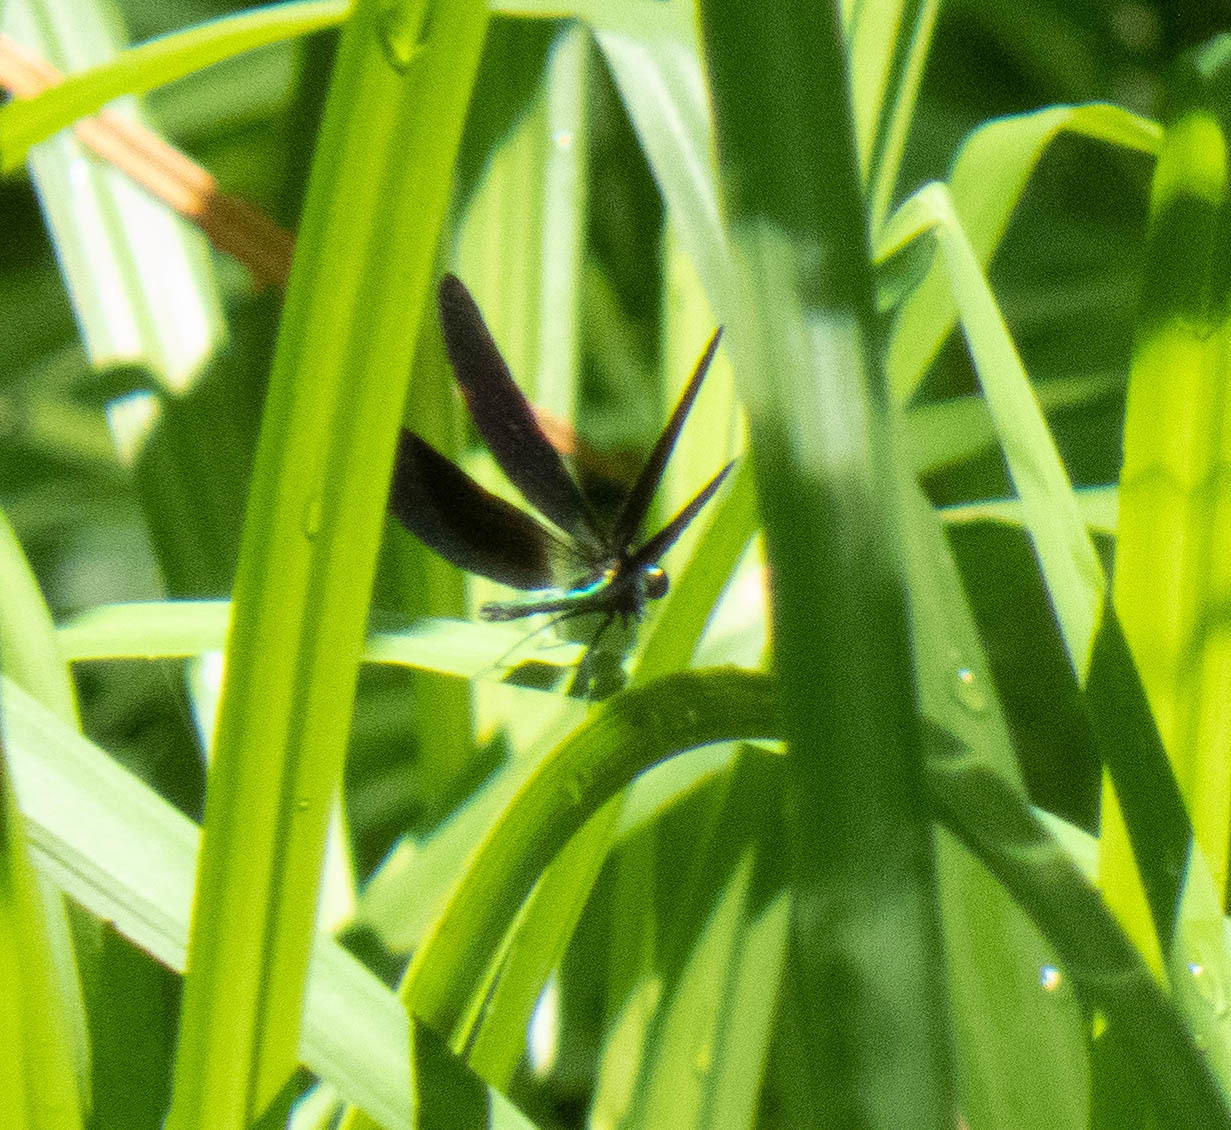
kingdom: Animalia
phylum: Arthropoda
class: Insecta
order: Odonata
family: Calopterygidae
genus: Calopteryx
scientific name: Calopteryx maculata
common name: Ebony jewelwing
